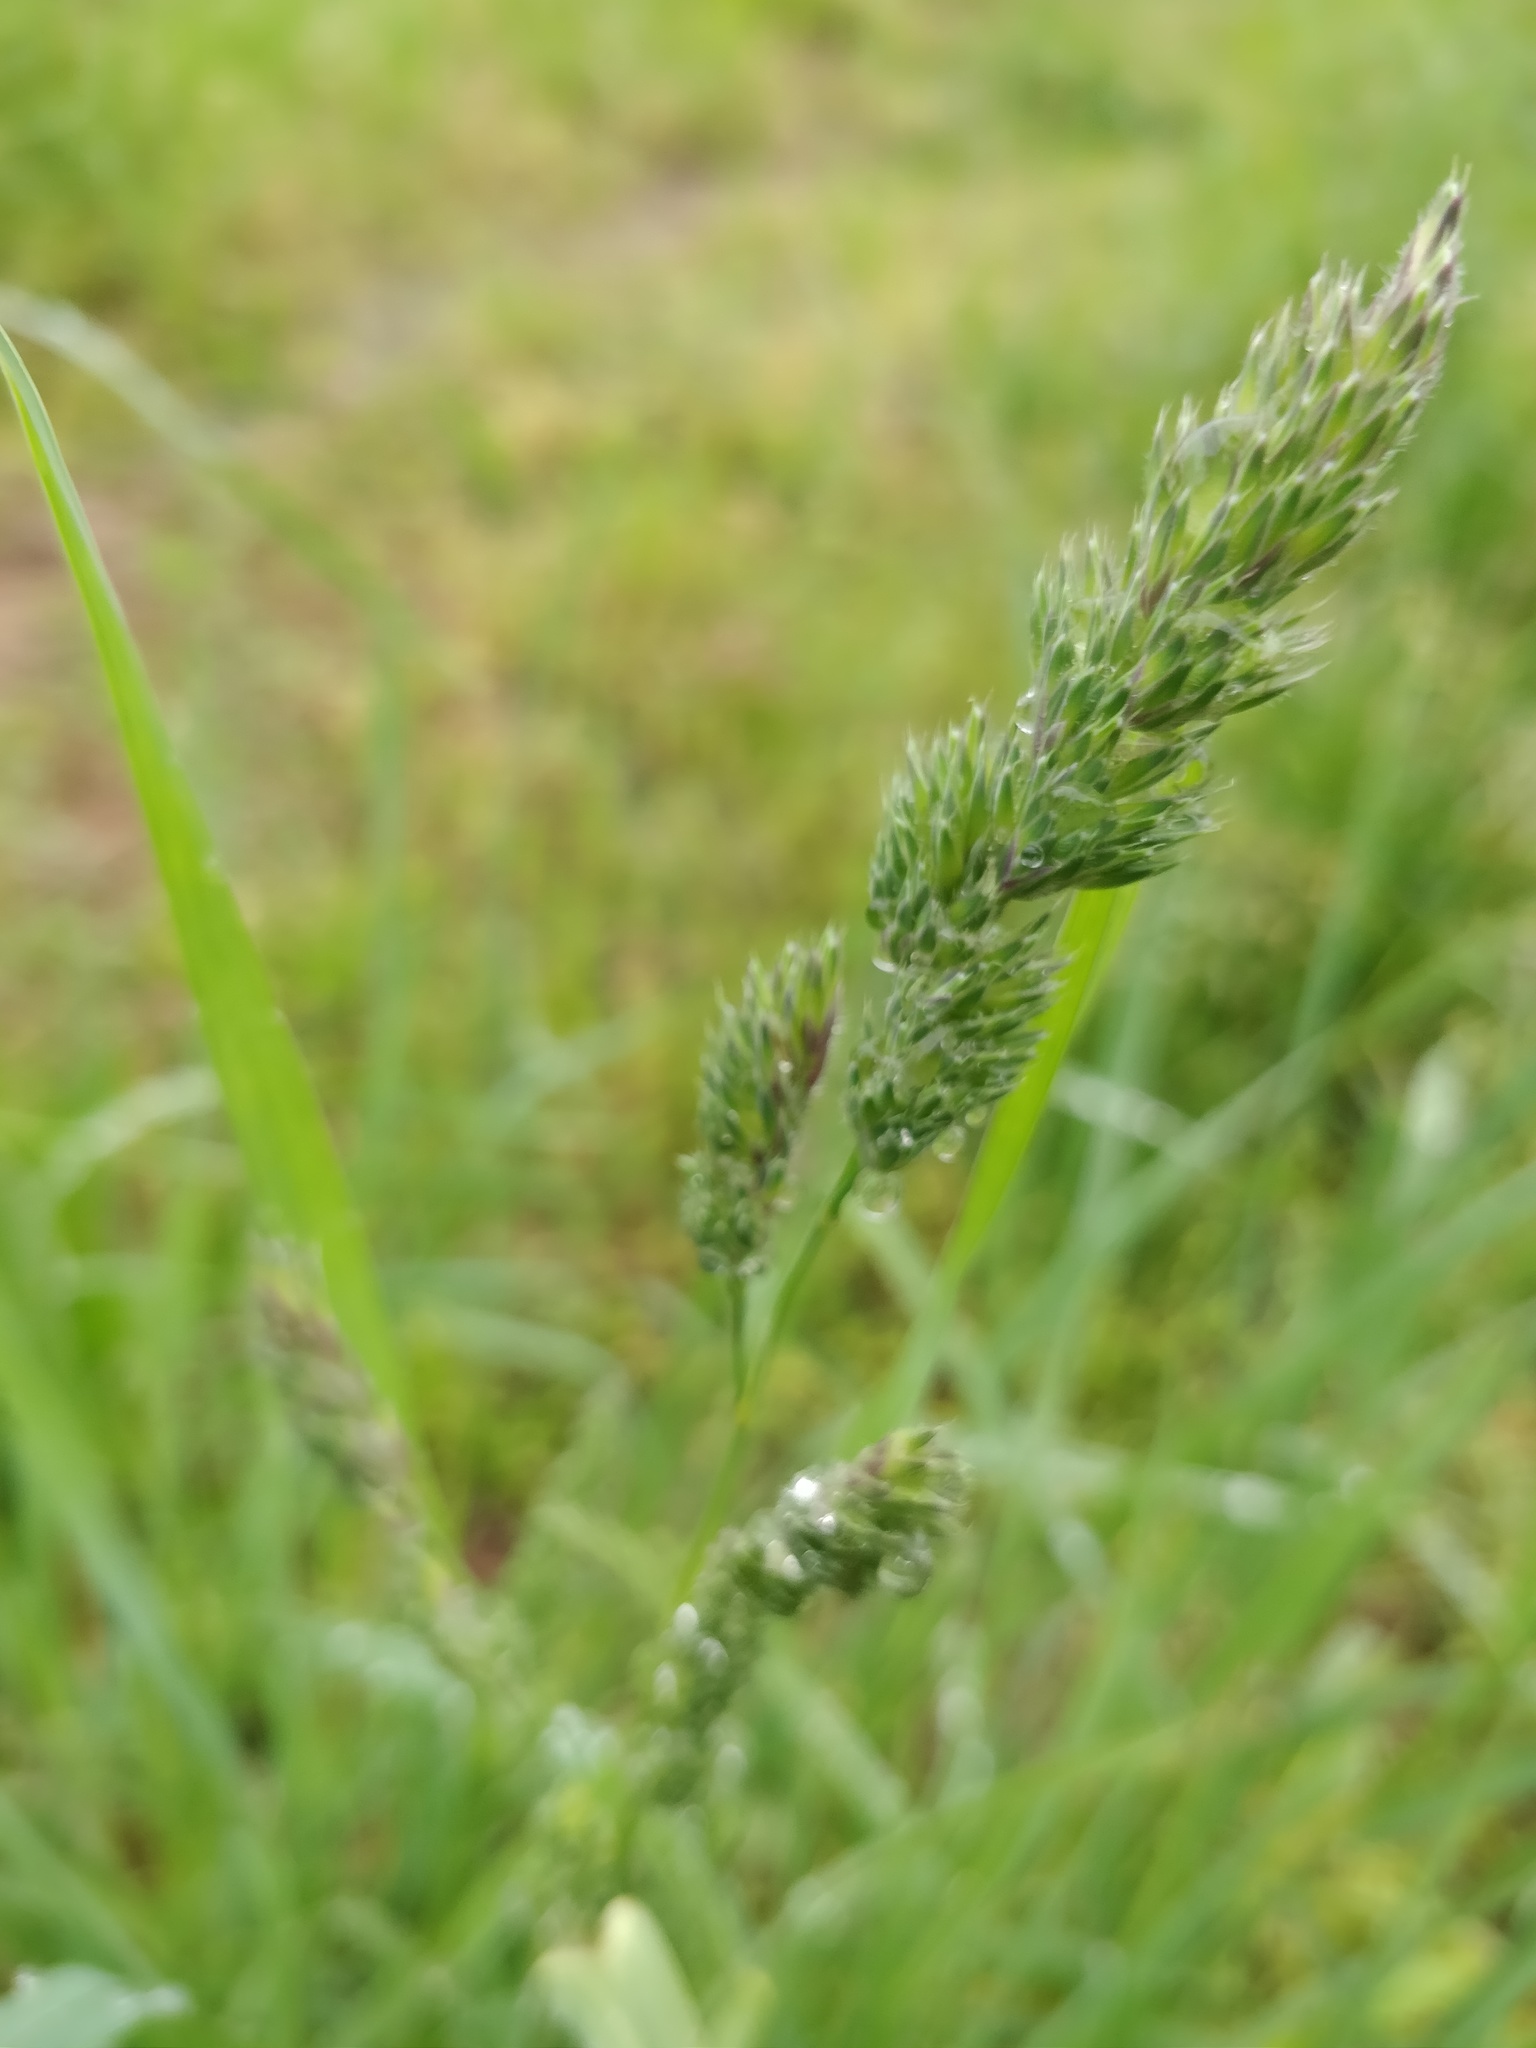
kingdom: Plantae
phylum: Tracheophyta
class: Liliopsida
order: Poales
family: Poaceae
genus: Dactylis
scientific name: Dactylis glomerata
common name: Orchardgrass
